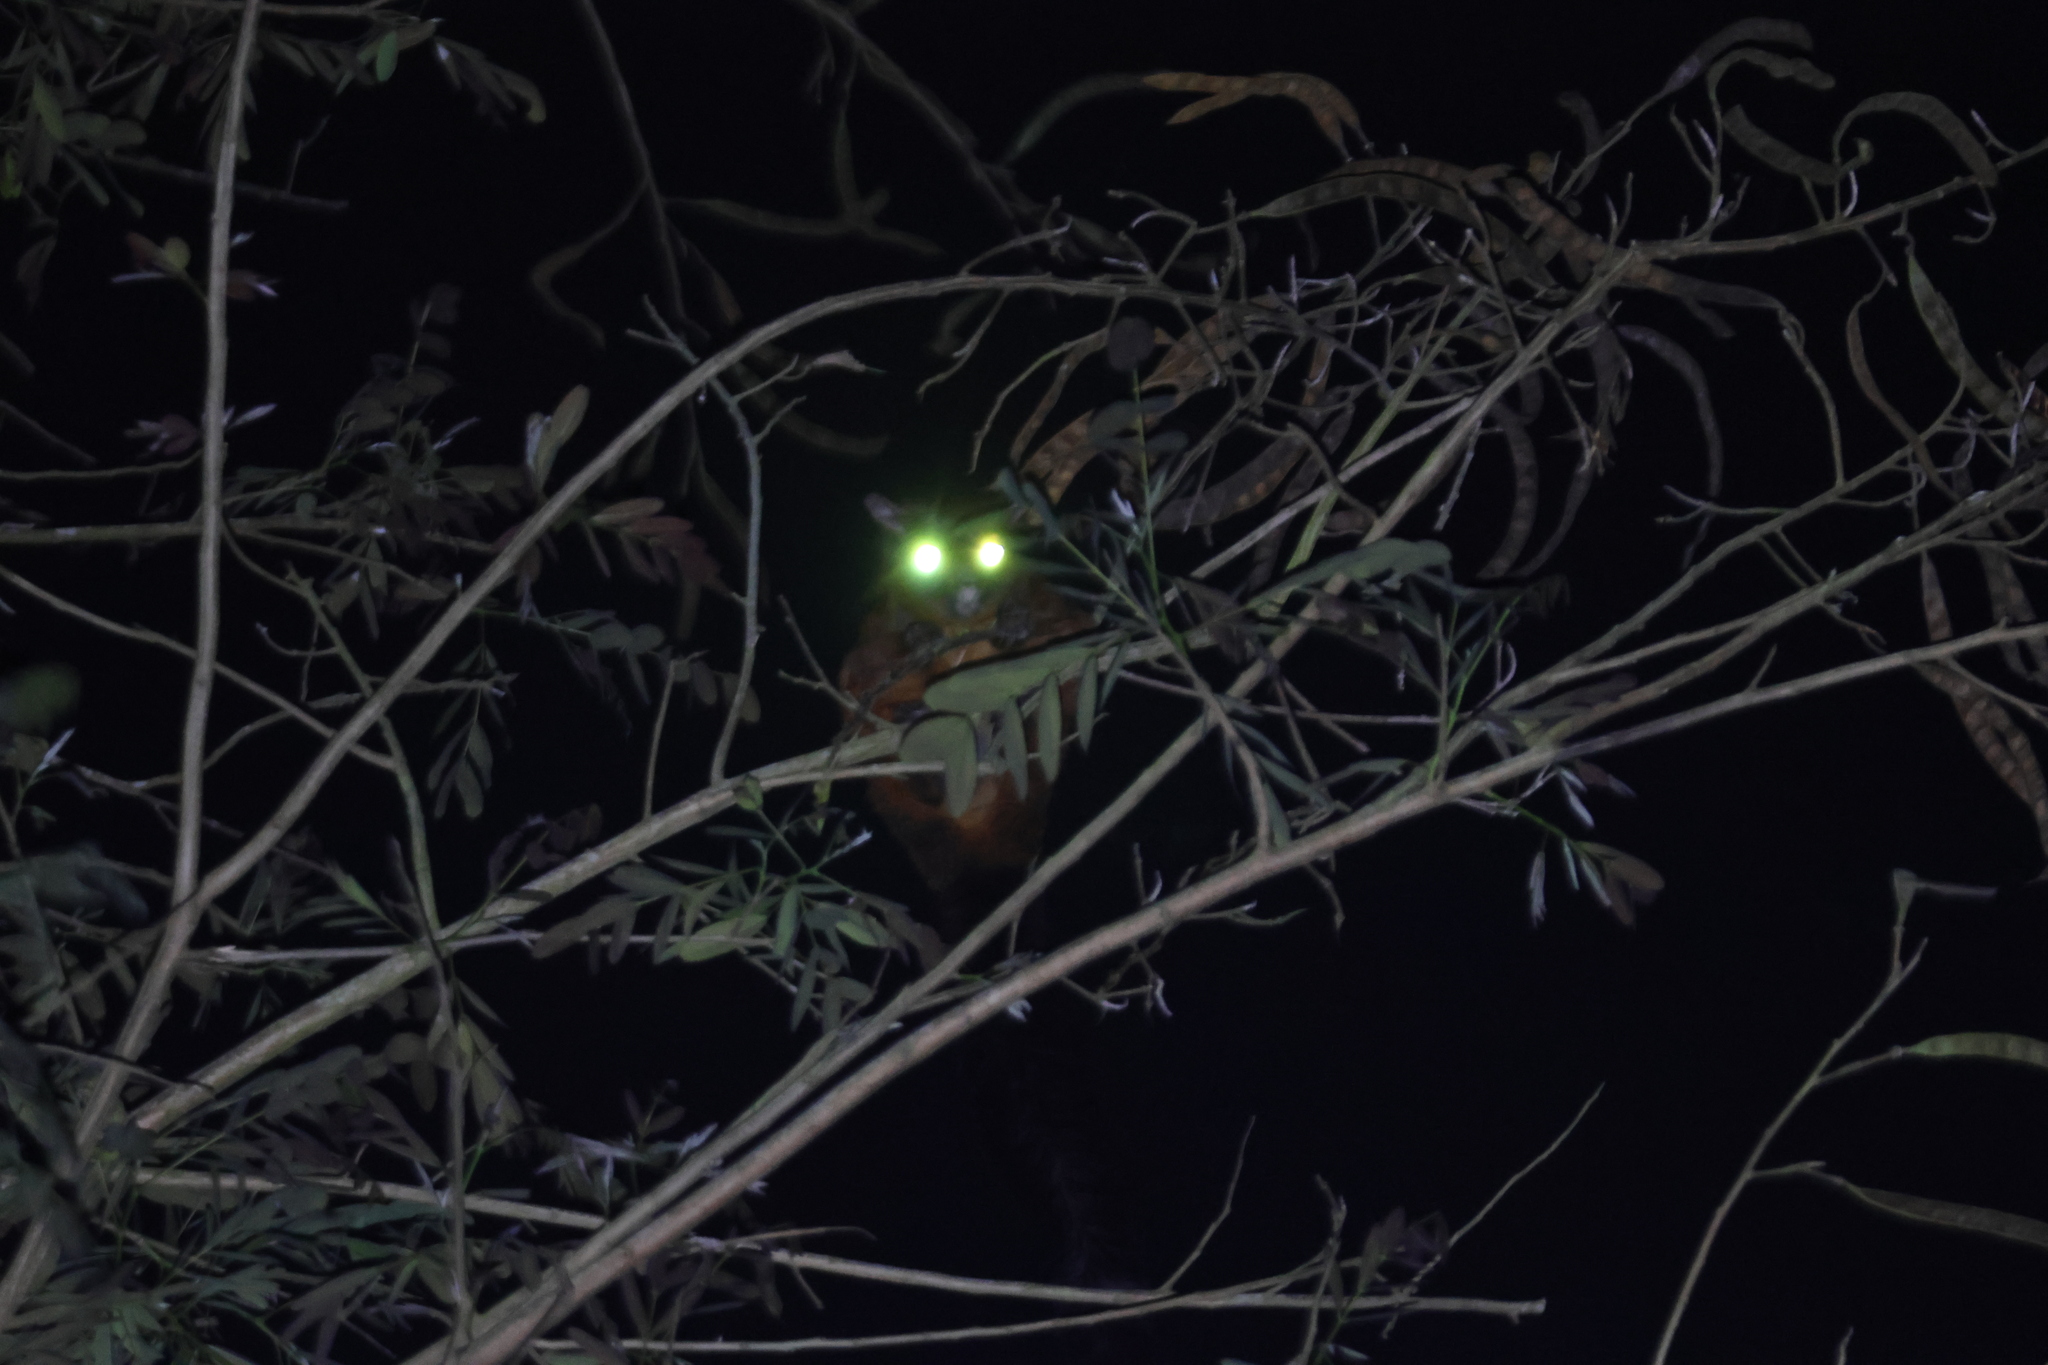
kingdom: Animalia
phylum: Chordata
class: Mammalia
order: Rodentia
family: Sciuridae
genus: Petaurista
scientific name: Petaurista
